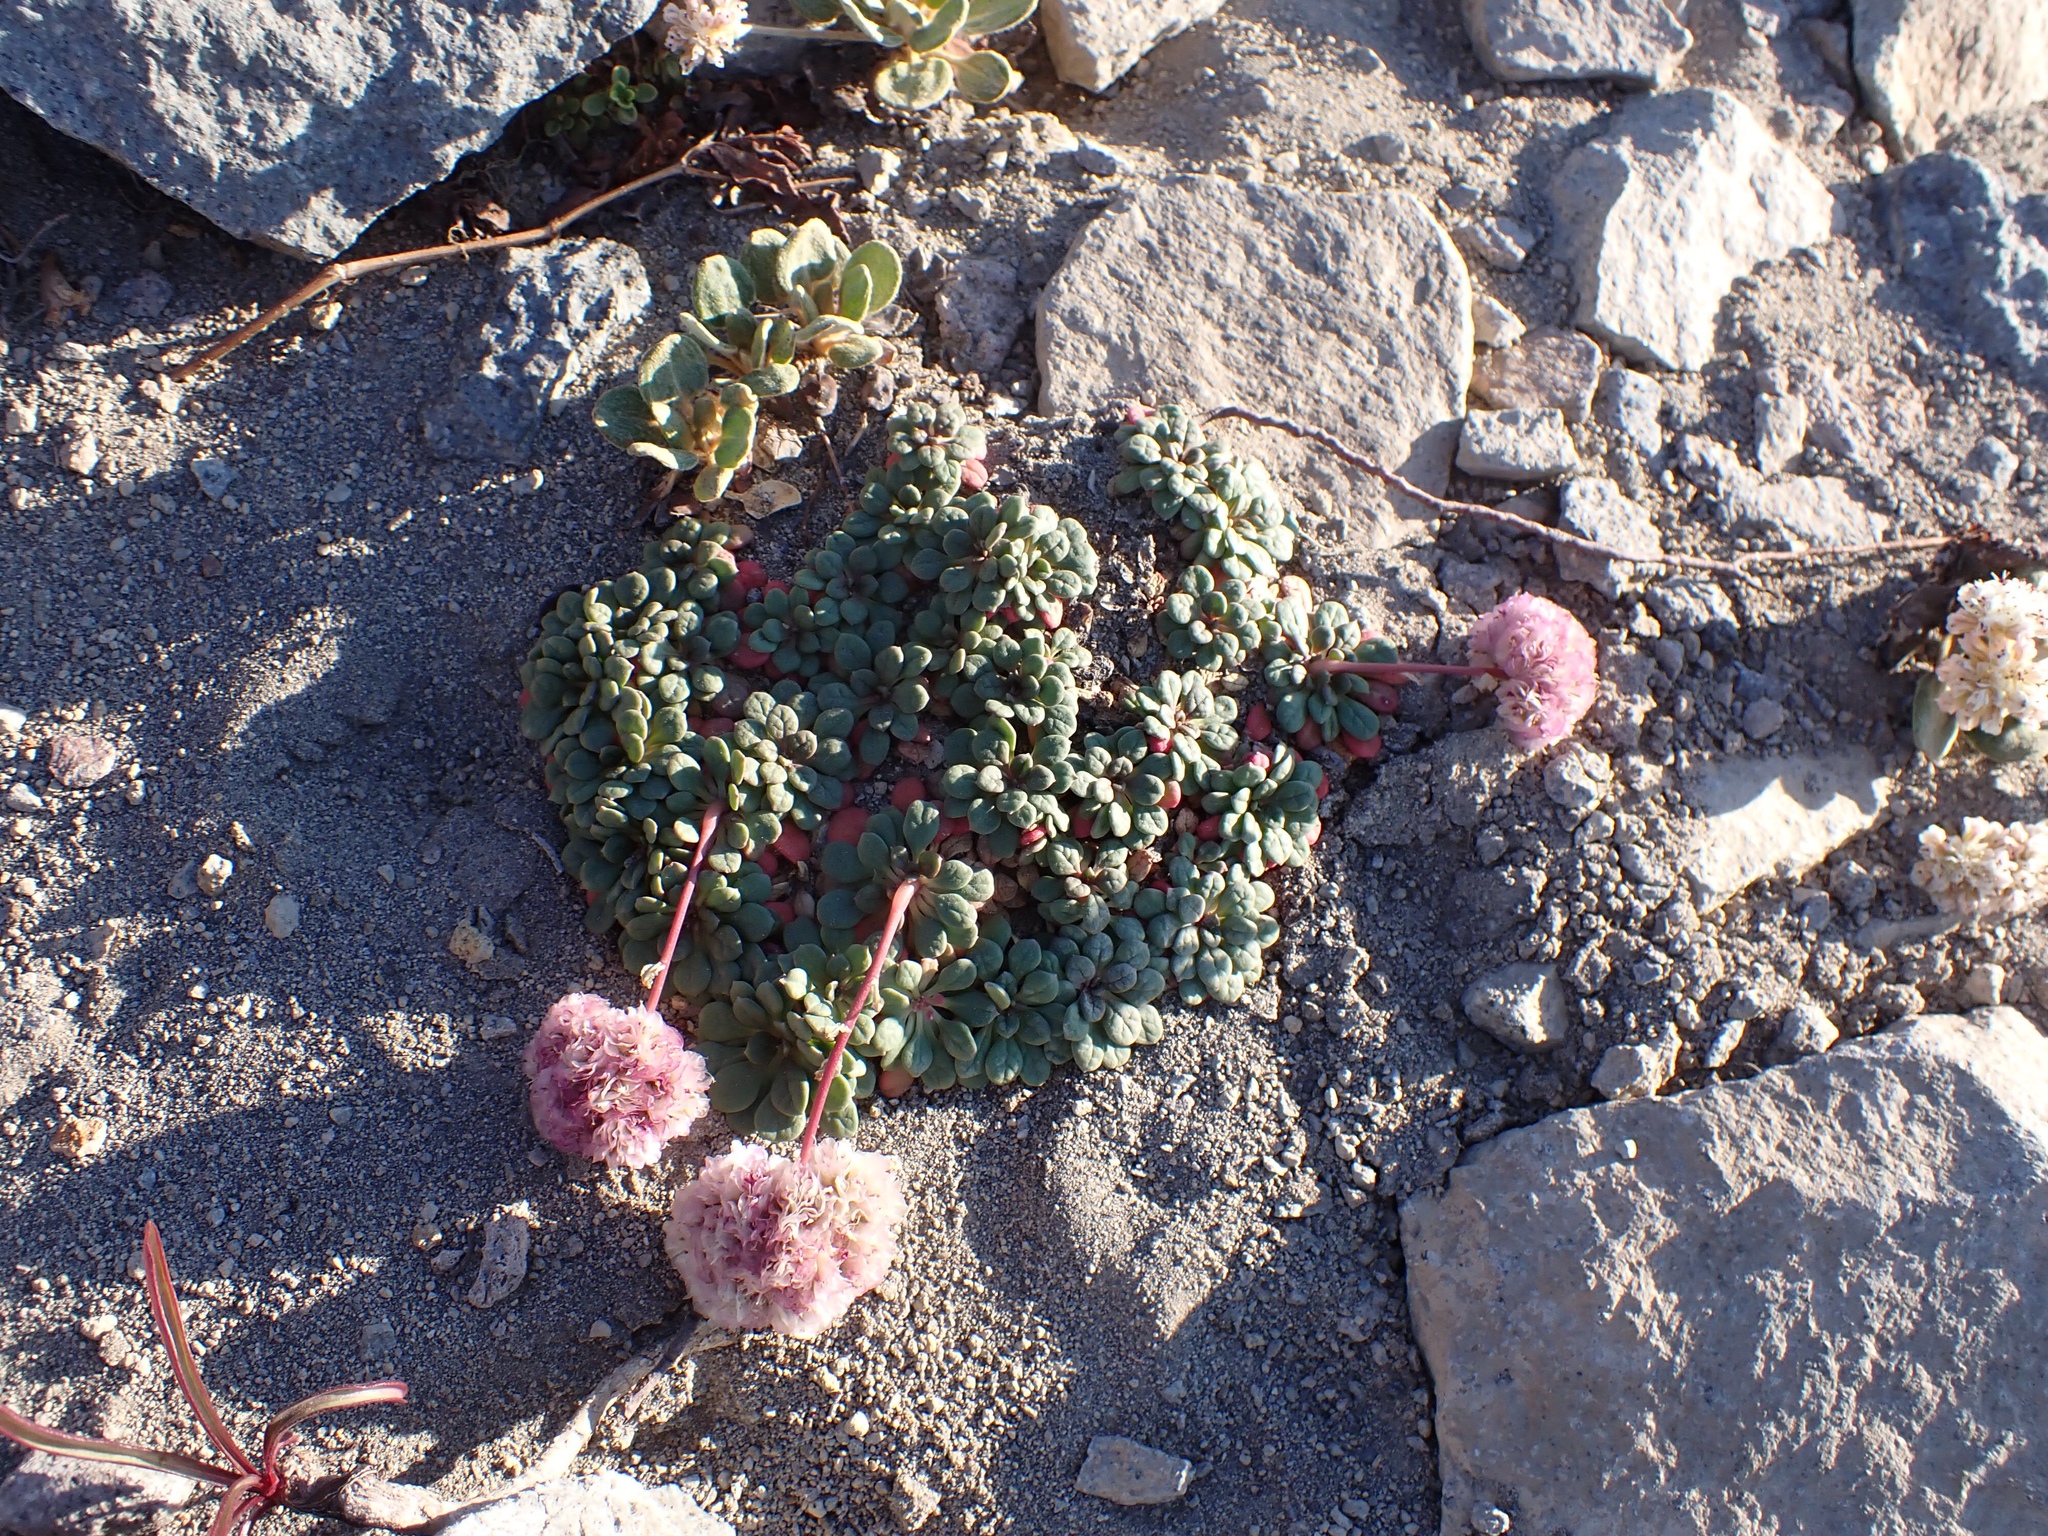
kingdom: Plantae
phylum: Tracheophyta
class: Magnoliopsida
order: Caryophyllales
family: Montiaceae
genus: Calyptridium
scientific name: Calyptridium umbellatum
